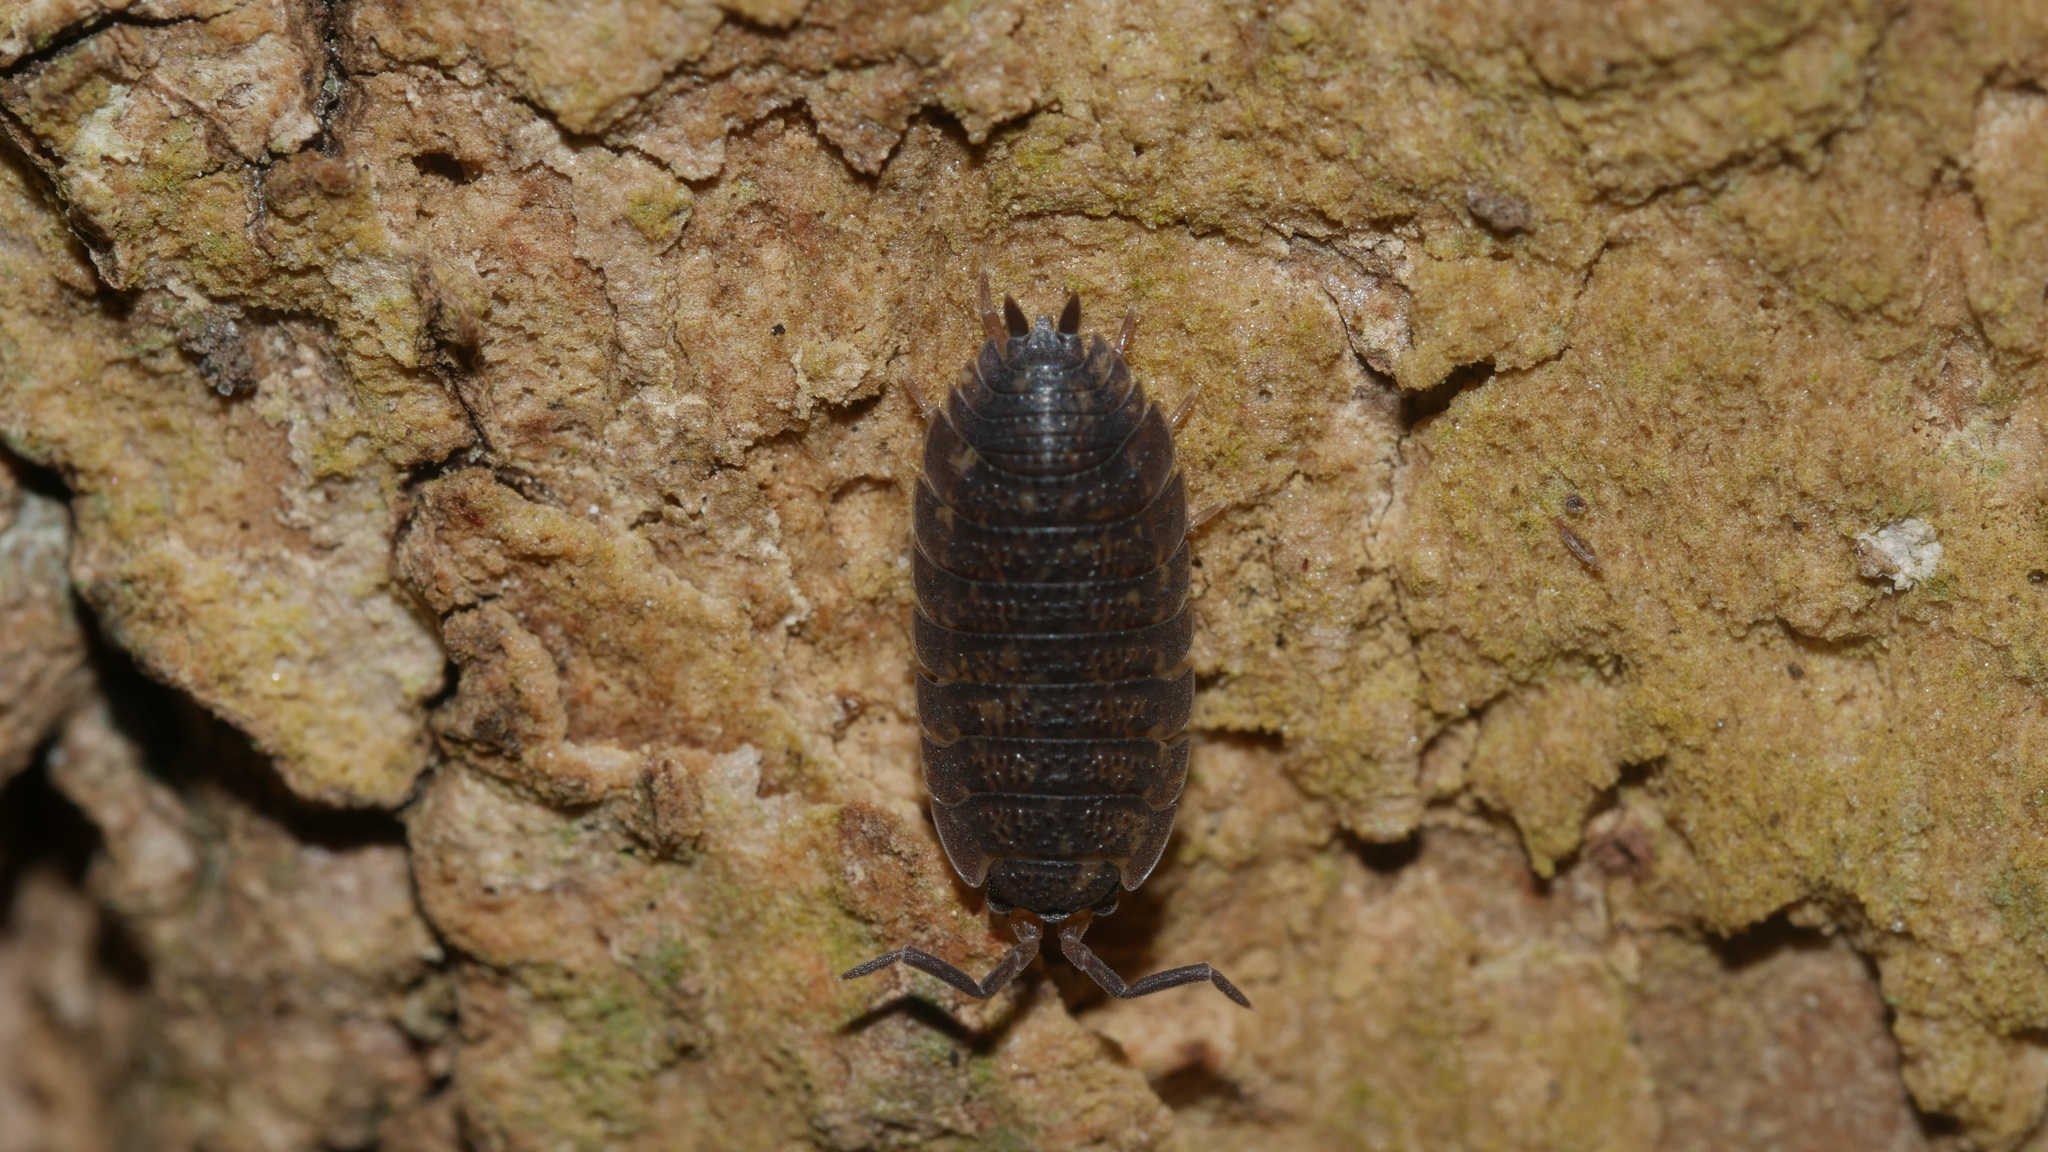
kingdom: Animalia
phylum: Arthropoda
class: Malacostraca
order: Isopoda
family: Porcellionidae
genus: Porcellio
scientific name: Porcellio scaber
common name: Common rough woodlouse
